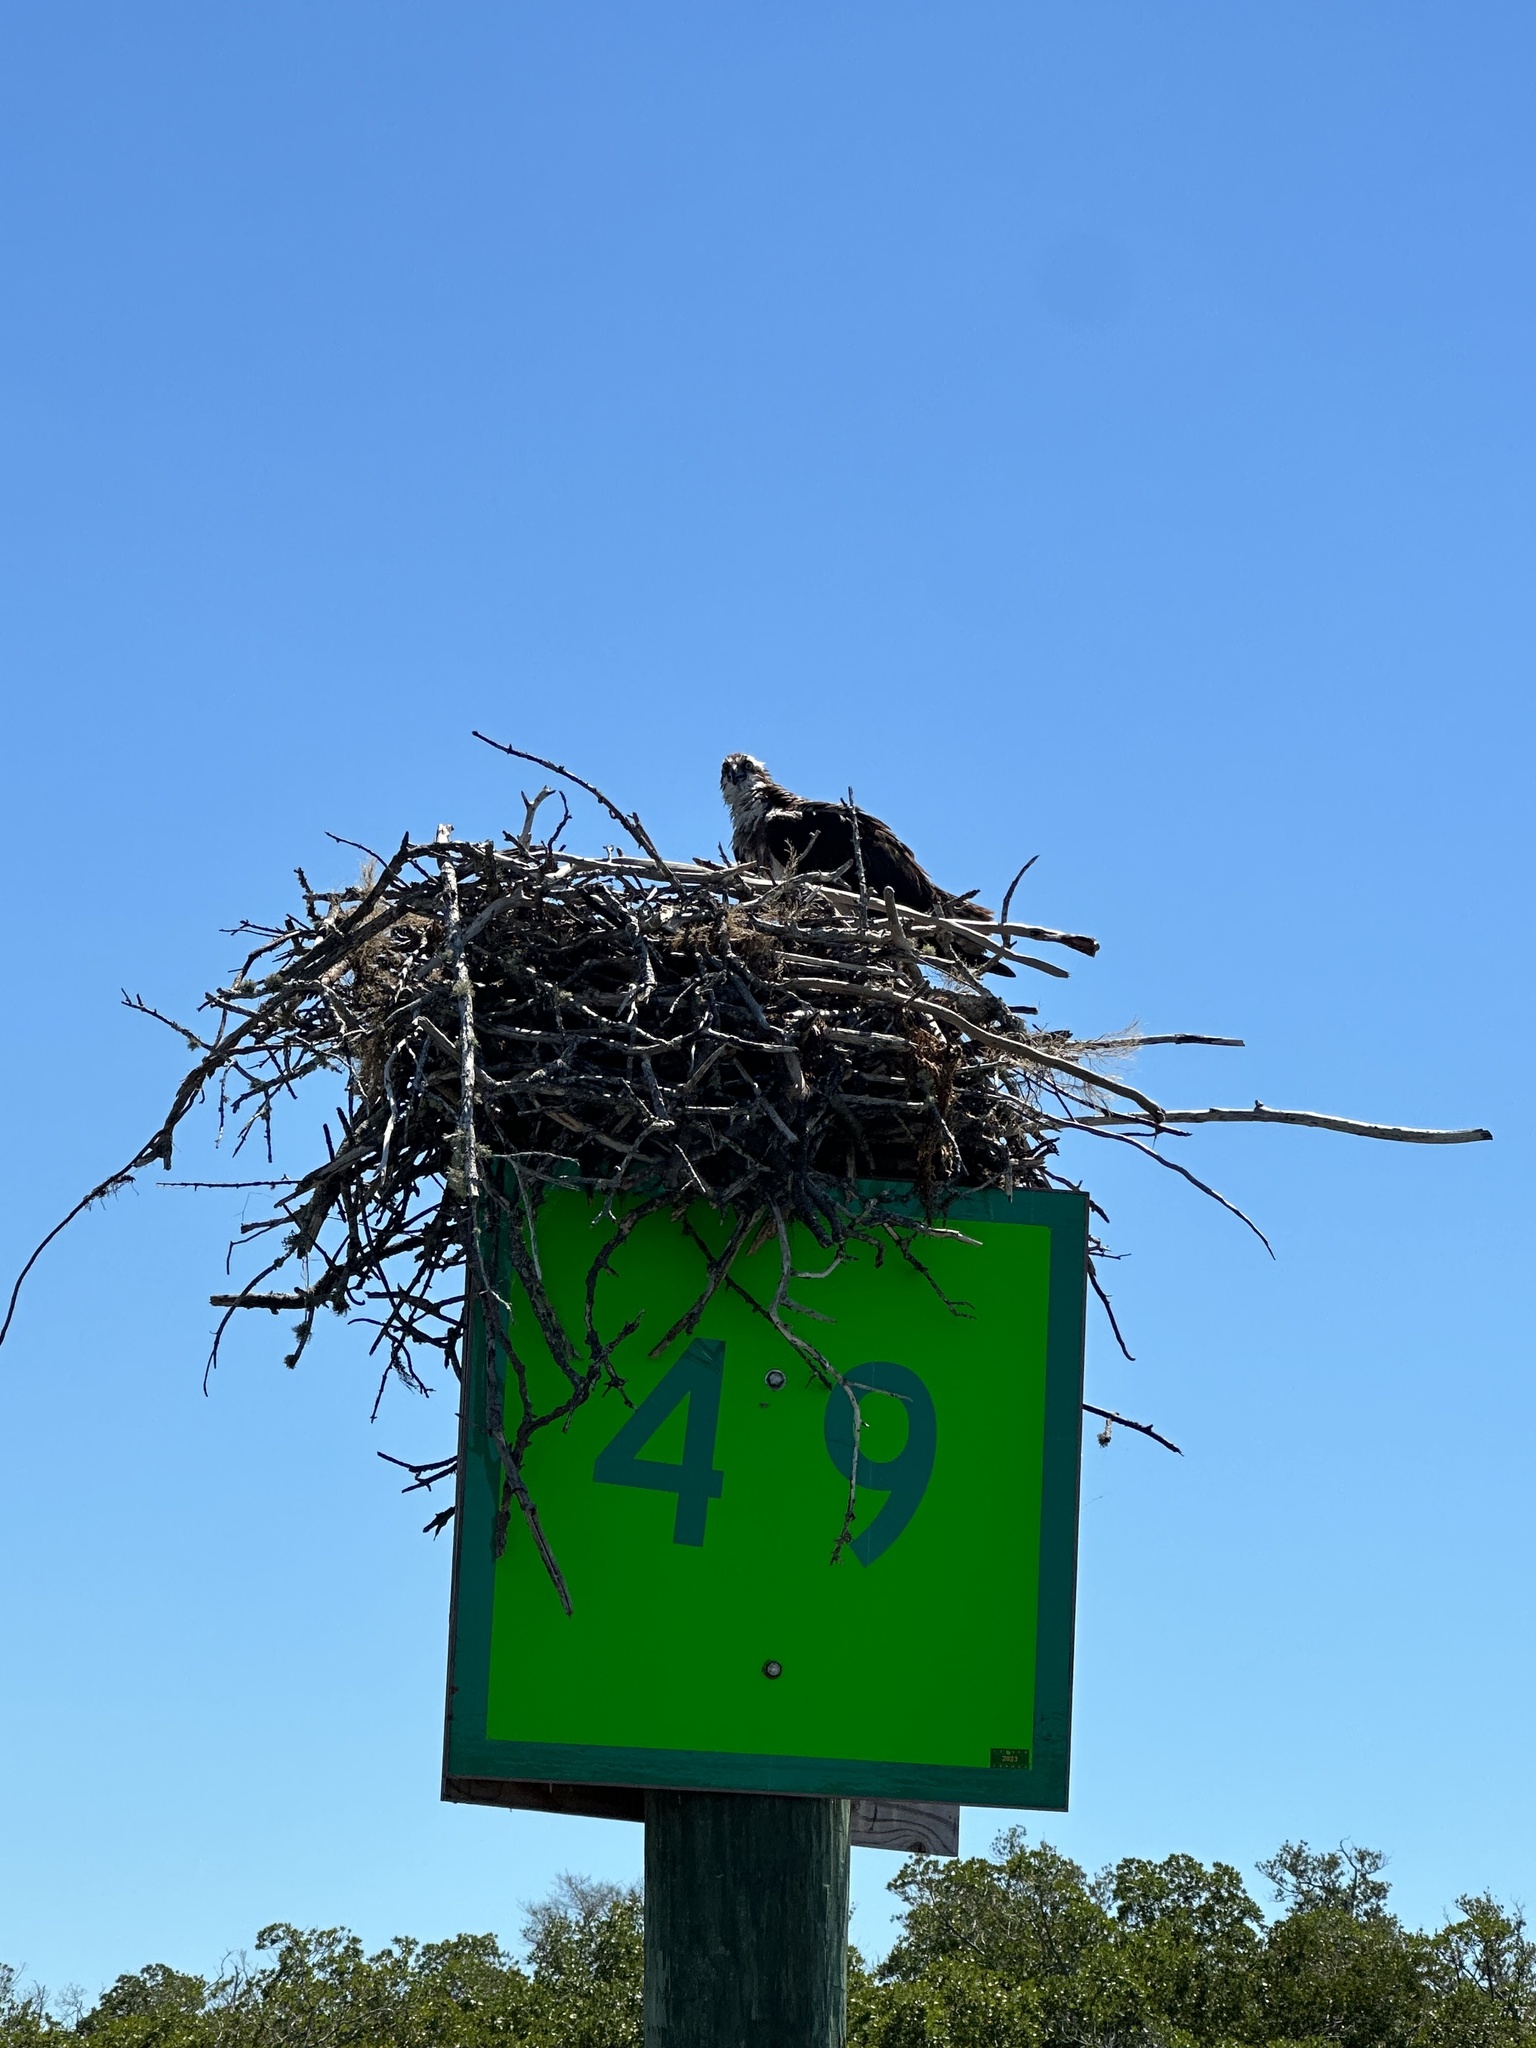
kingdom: Animalia
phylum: Chordata
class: Aves
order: Accipitriformes
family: Pandionidae
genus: Pandion
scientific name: Pandion haliaetus
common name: Osprey
